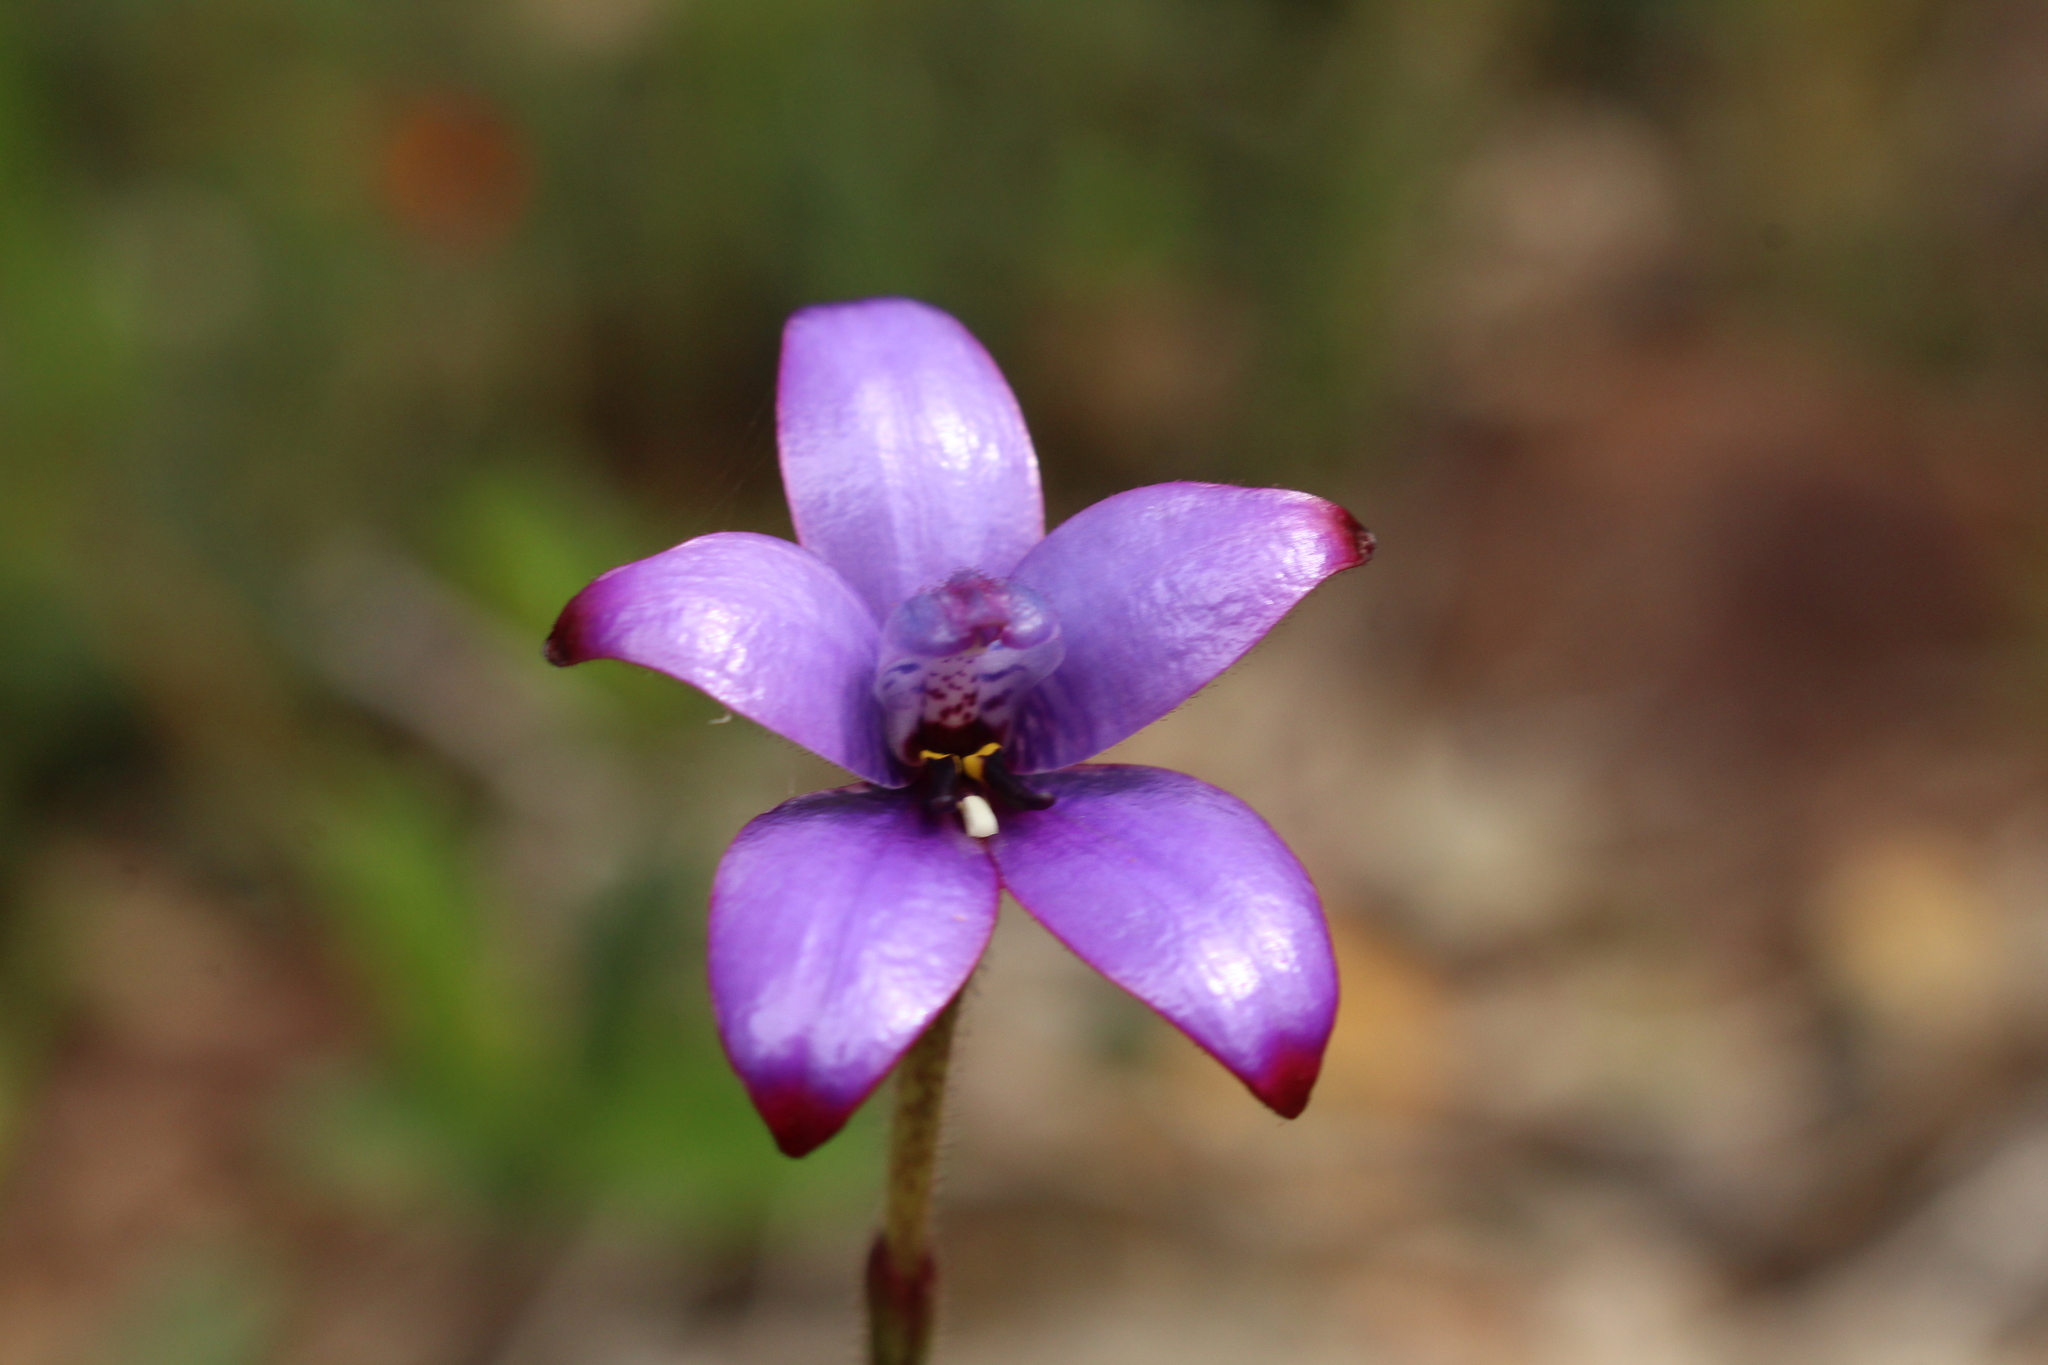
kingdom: Plantae
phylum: Tracheophyta
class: Liliopsida
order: Asparagales
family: Orchidaceae
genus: Caladenia
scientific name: Caladenia brunonis
